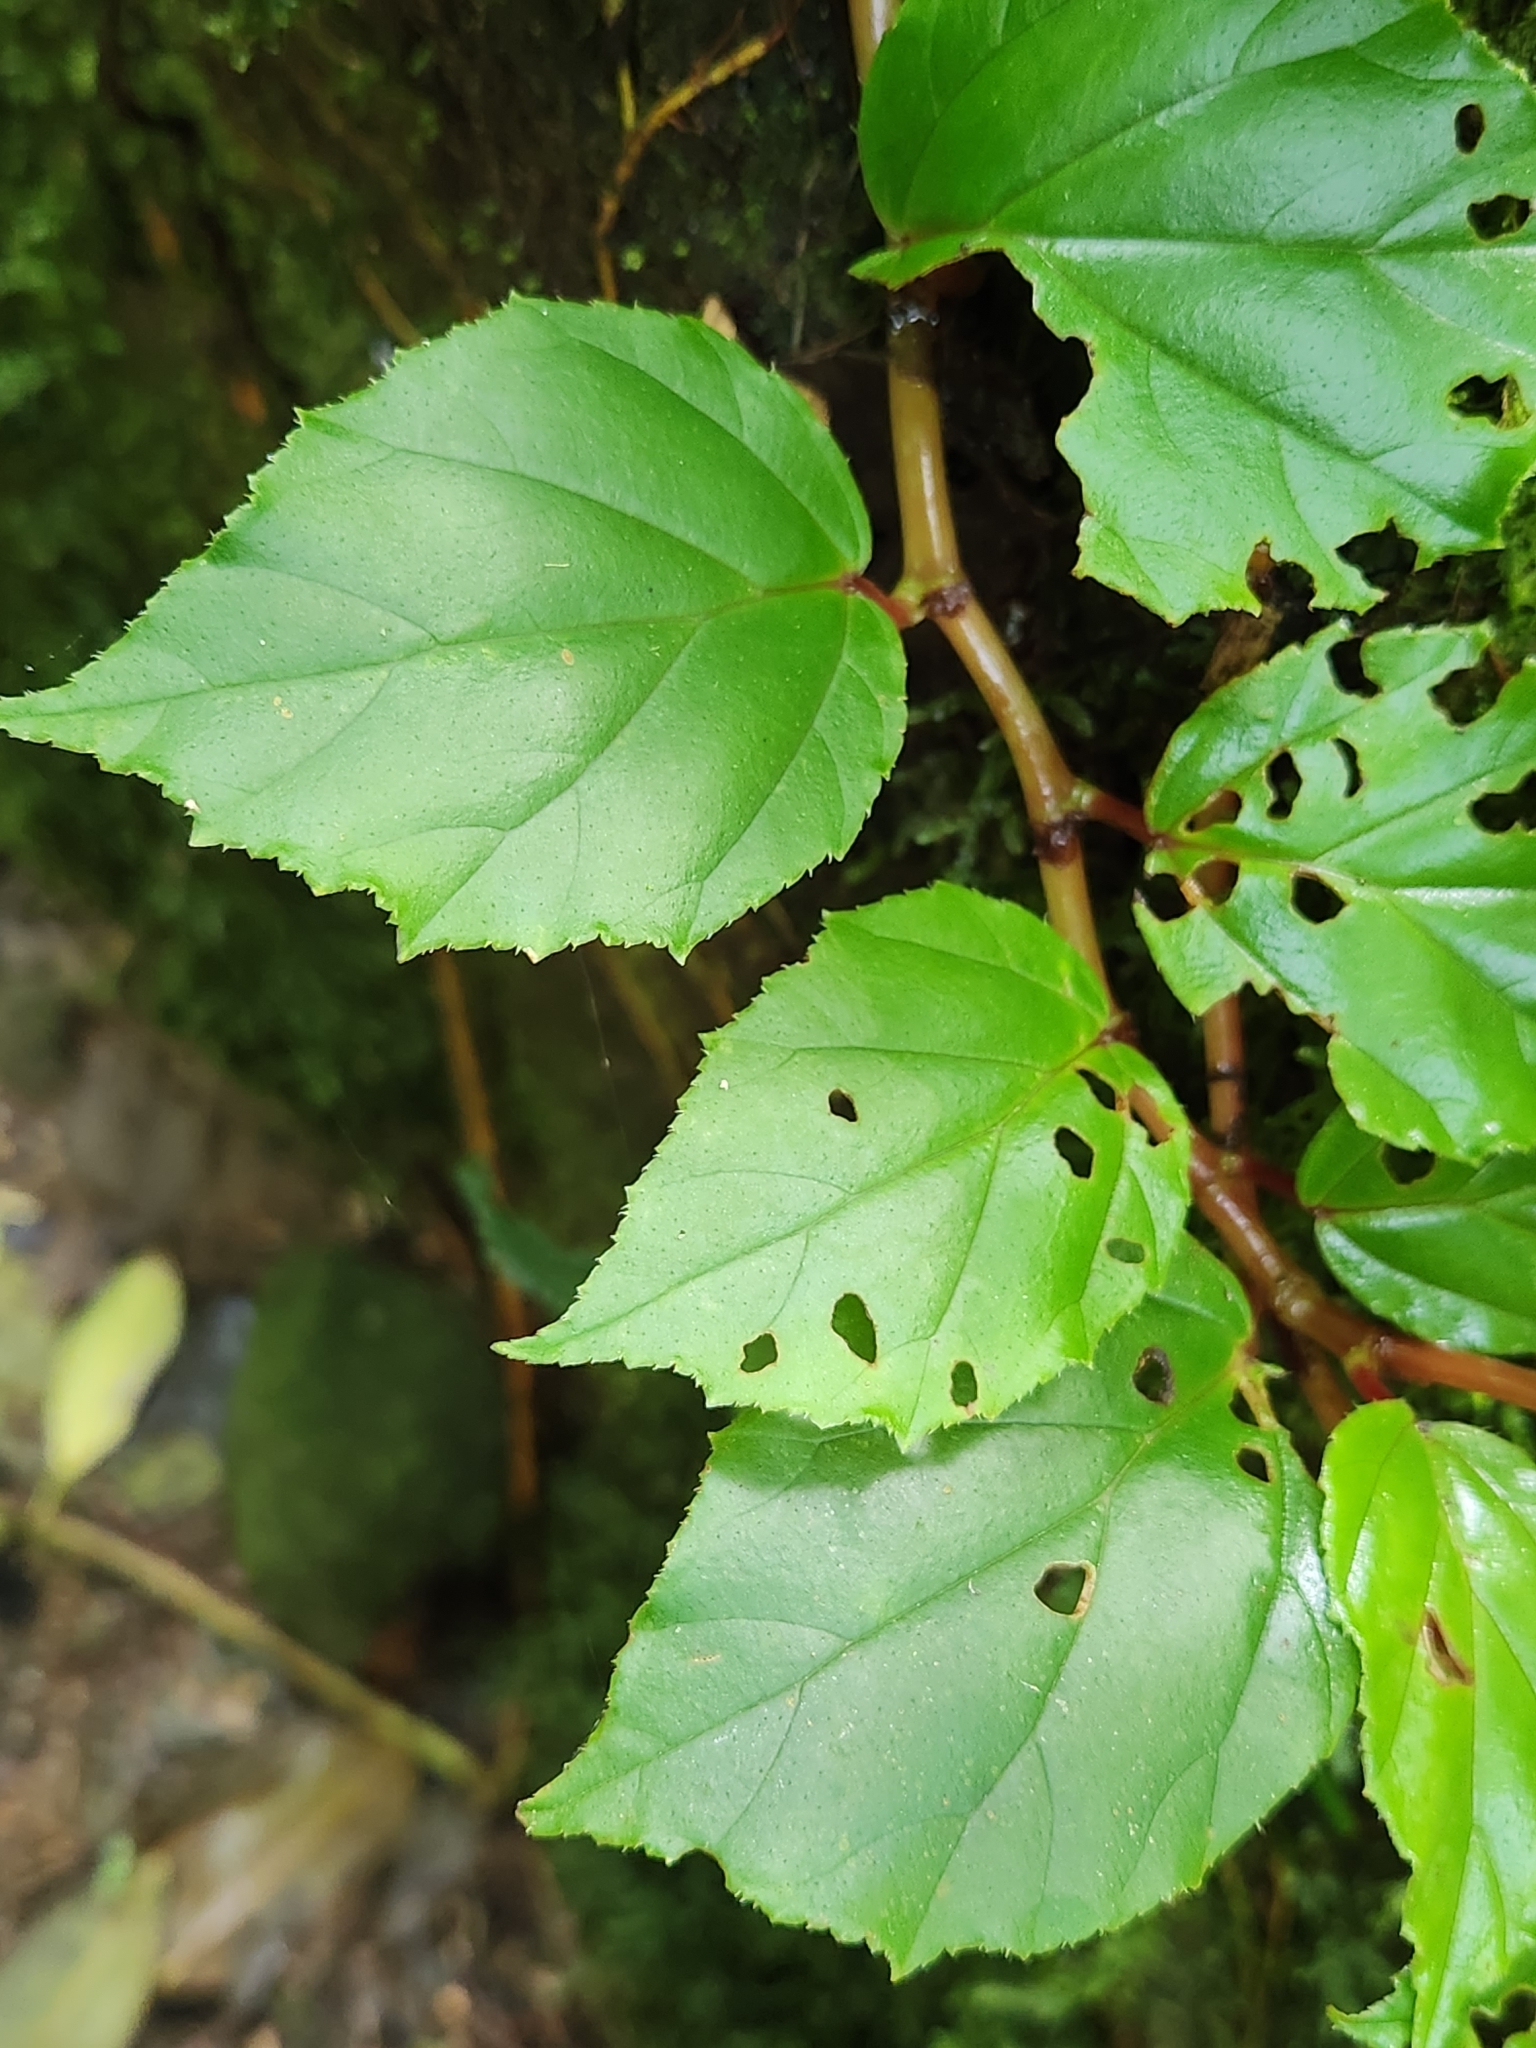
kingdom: Plantae
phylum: Tracheophyta
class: Magnoliopsida
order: Cucurbitales
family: Begoniaceae
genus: Begonia
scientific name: Begonia glabra
